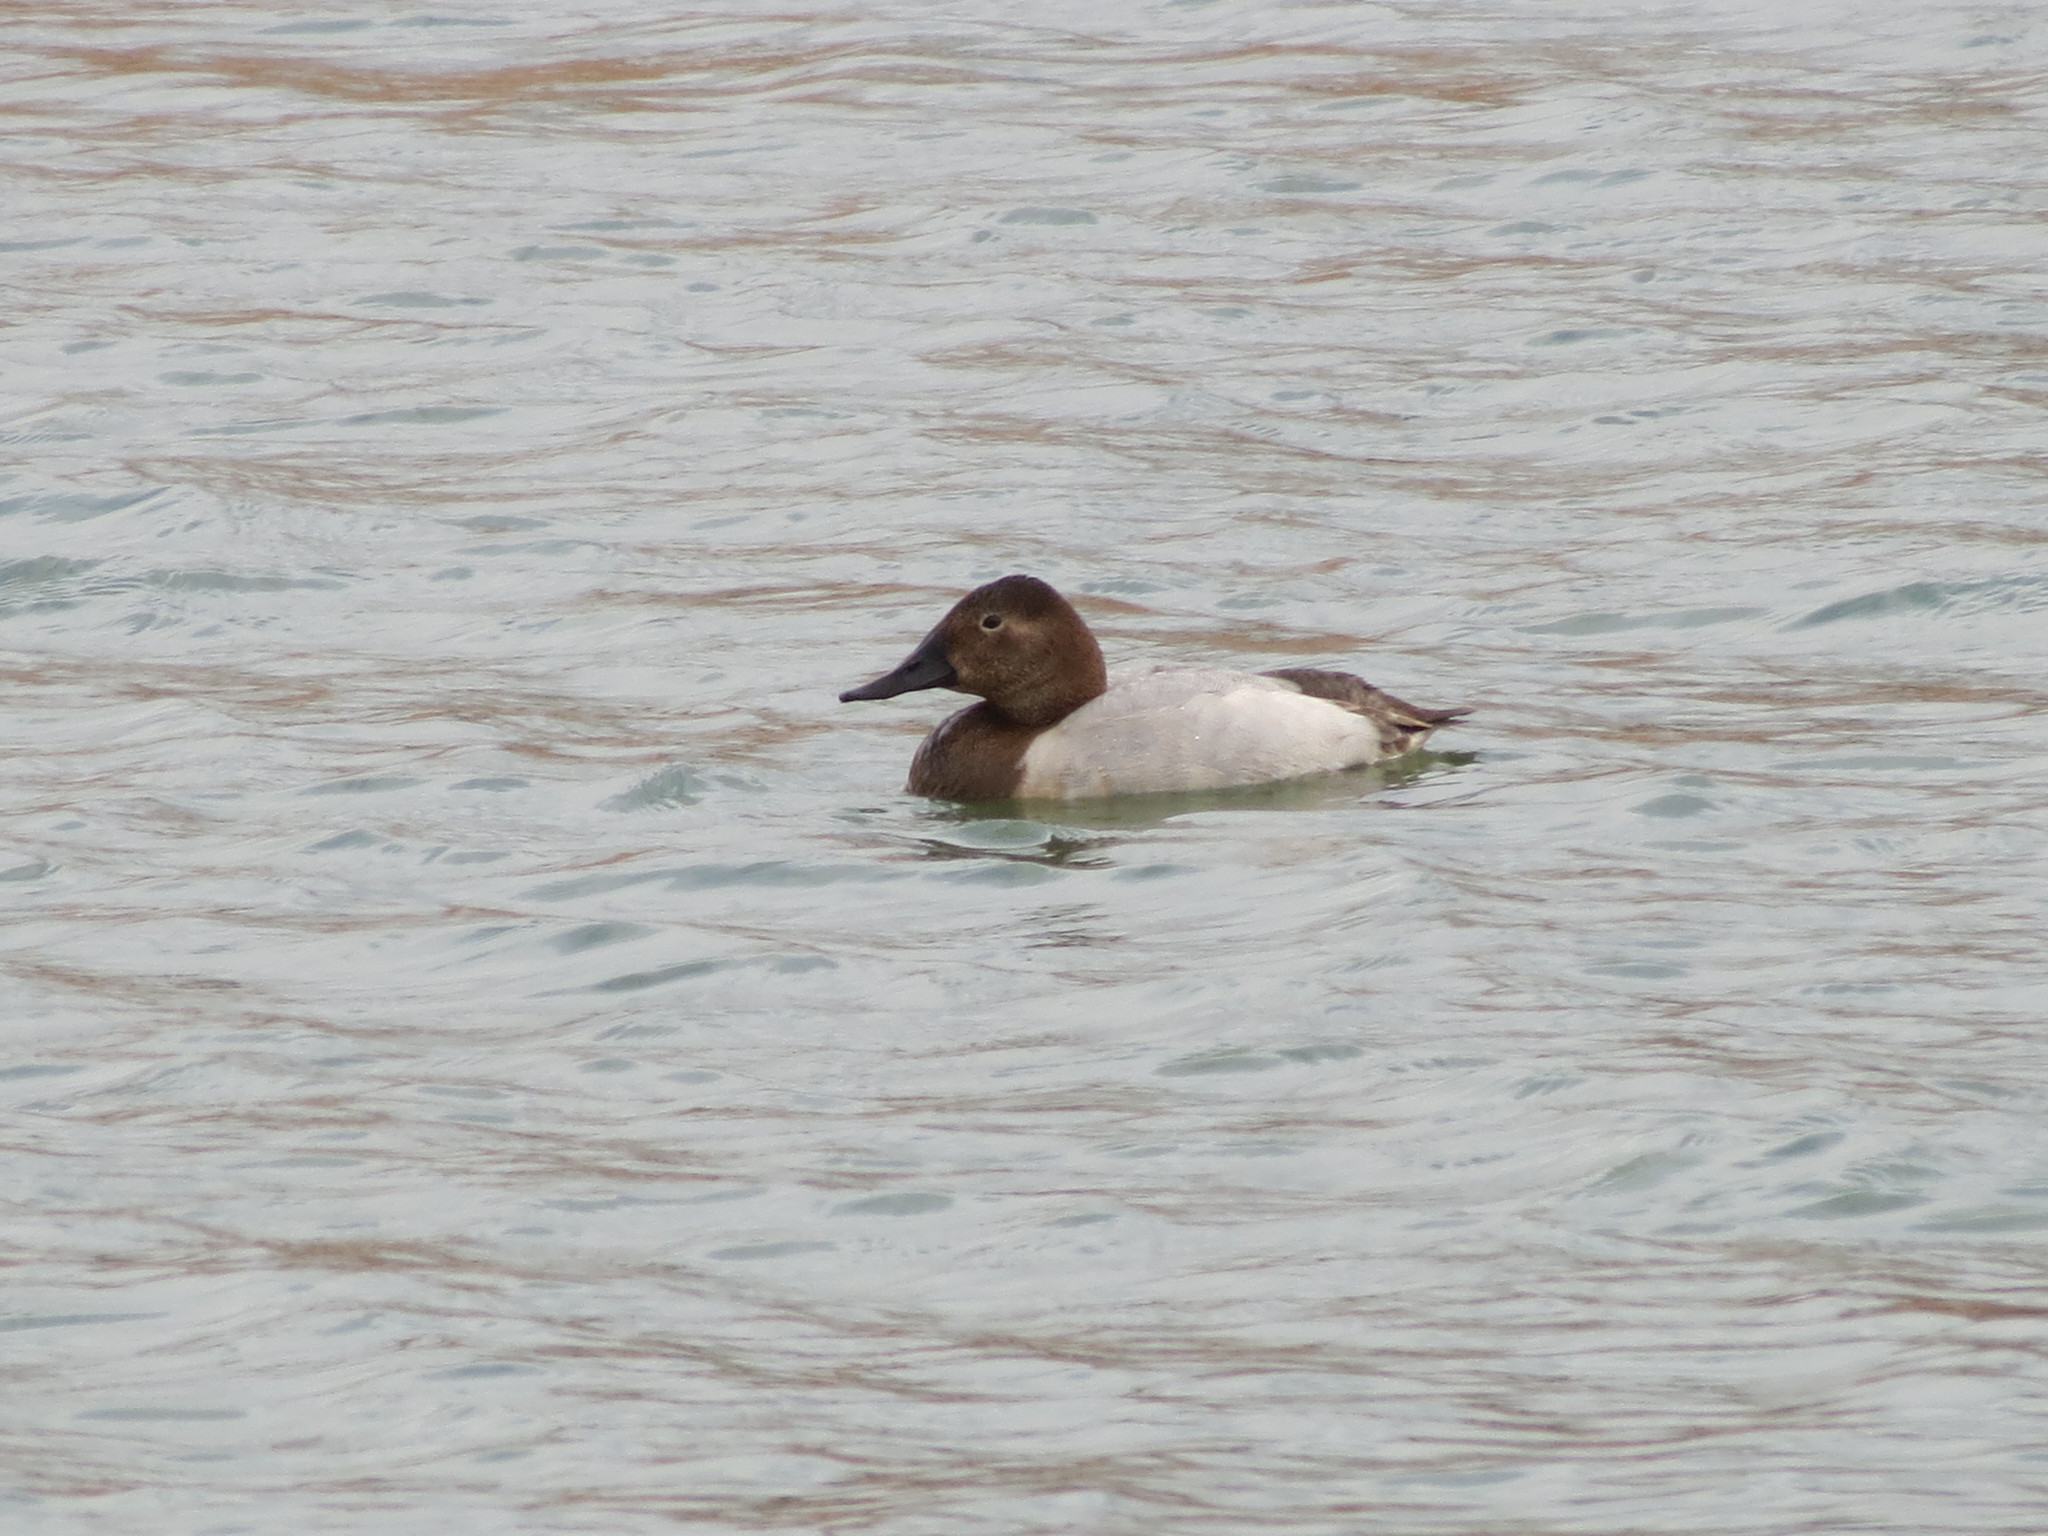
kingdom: Animalia
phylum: Chordata
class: Aves
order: Anseriformes
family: Anatidae
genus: Aythya
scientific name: Aythya valisineria
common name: Canvasback
